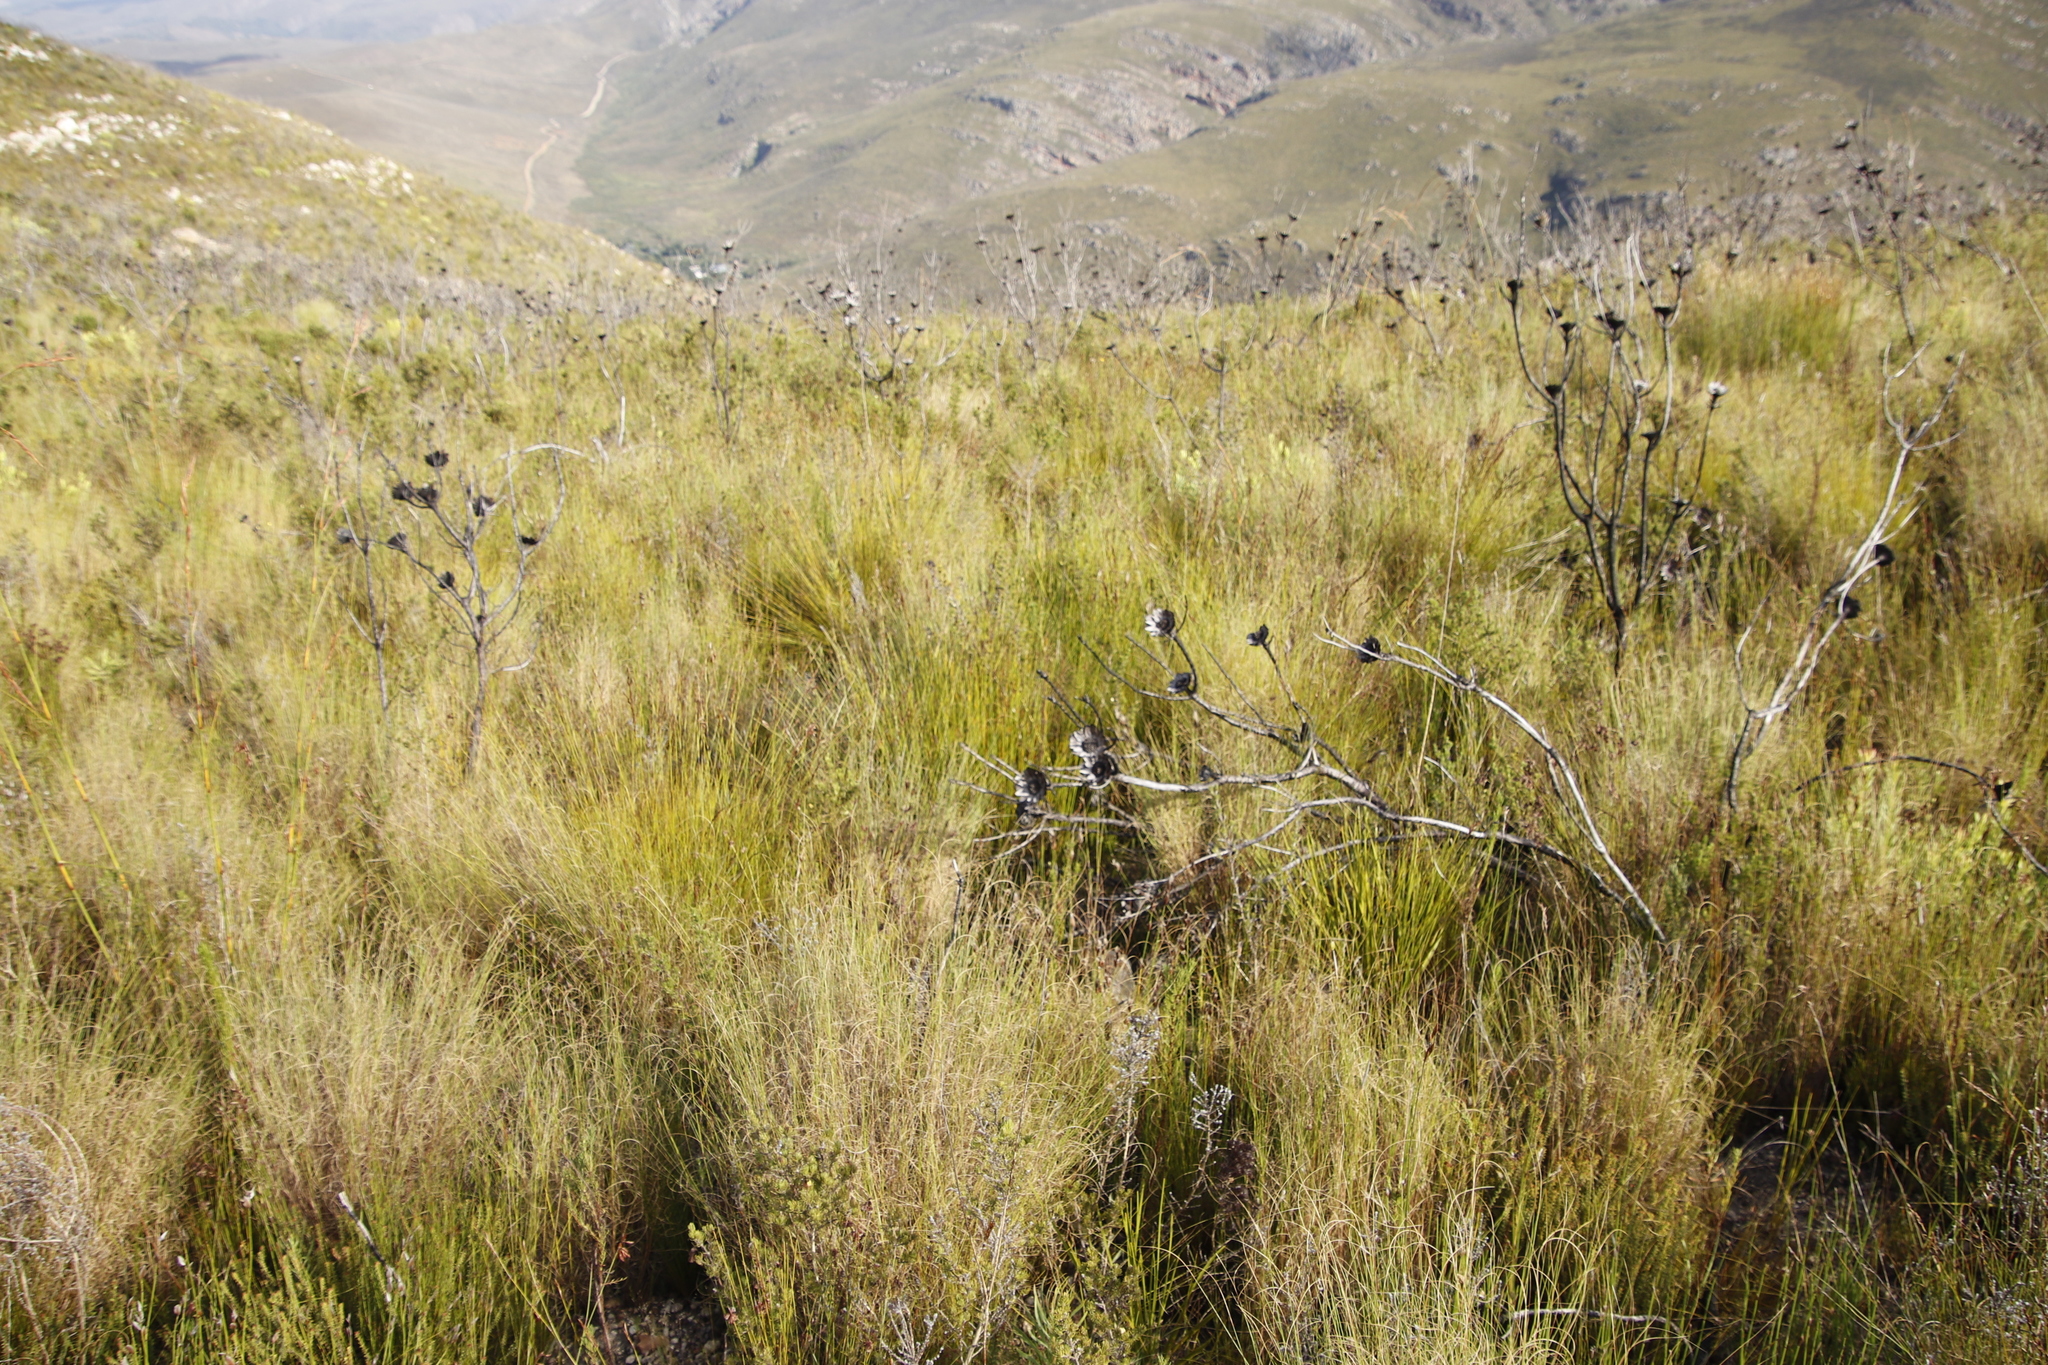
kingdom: Plantae
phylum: Tracheophyta
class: Magnoliopsida
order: Proteales
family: Proteaceae
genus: Protea
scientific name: Protea repens
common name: Sugarbush
